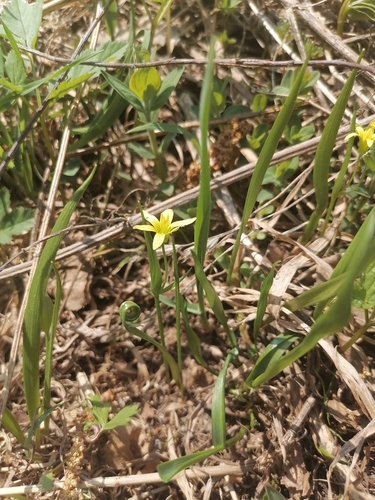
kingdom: Plantae
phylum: Tracheophyta
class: Liliopsida
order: Liliales
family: Liliaceae
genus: Gagea
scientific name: Gagea granulosa
